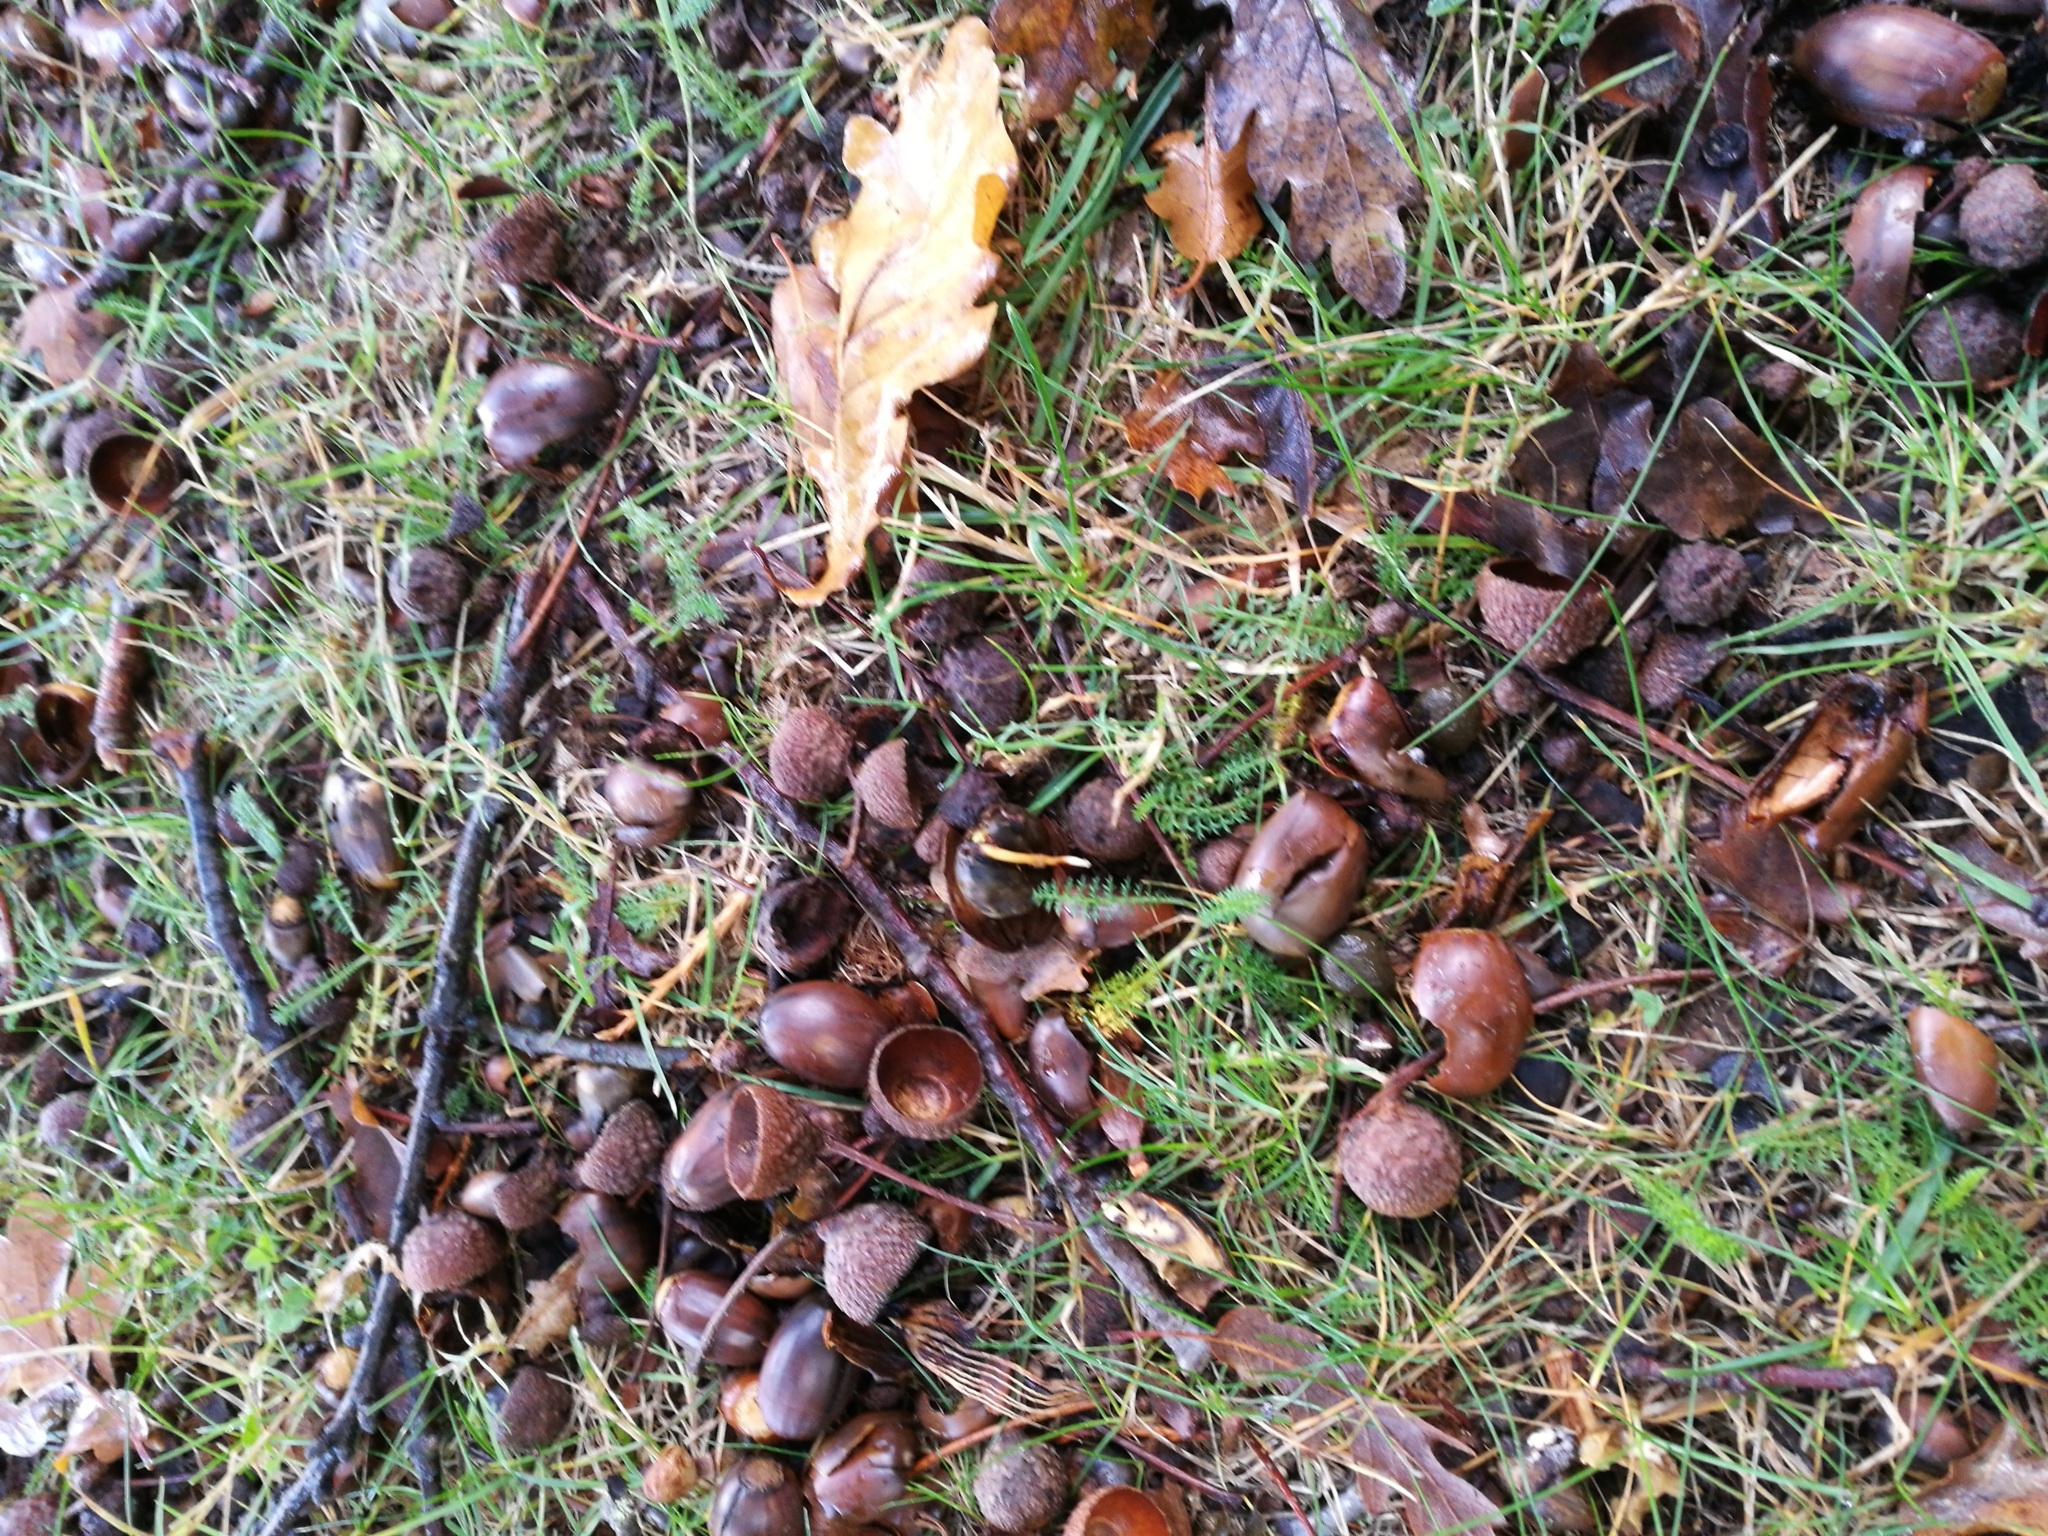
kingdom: Plantae
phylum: Tracheophyta
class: Magnoliopsida
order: Fagales
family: Fagaceae
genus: Quercus
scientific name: Quercus robur
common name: Pedunculate oak
